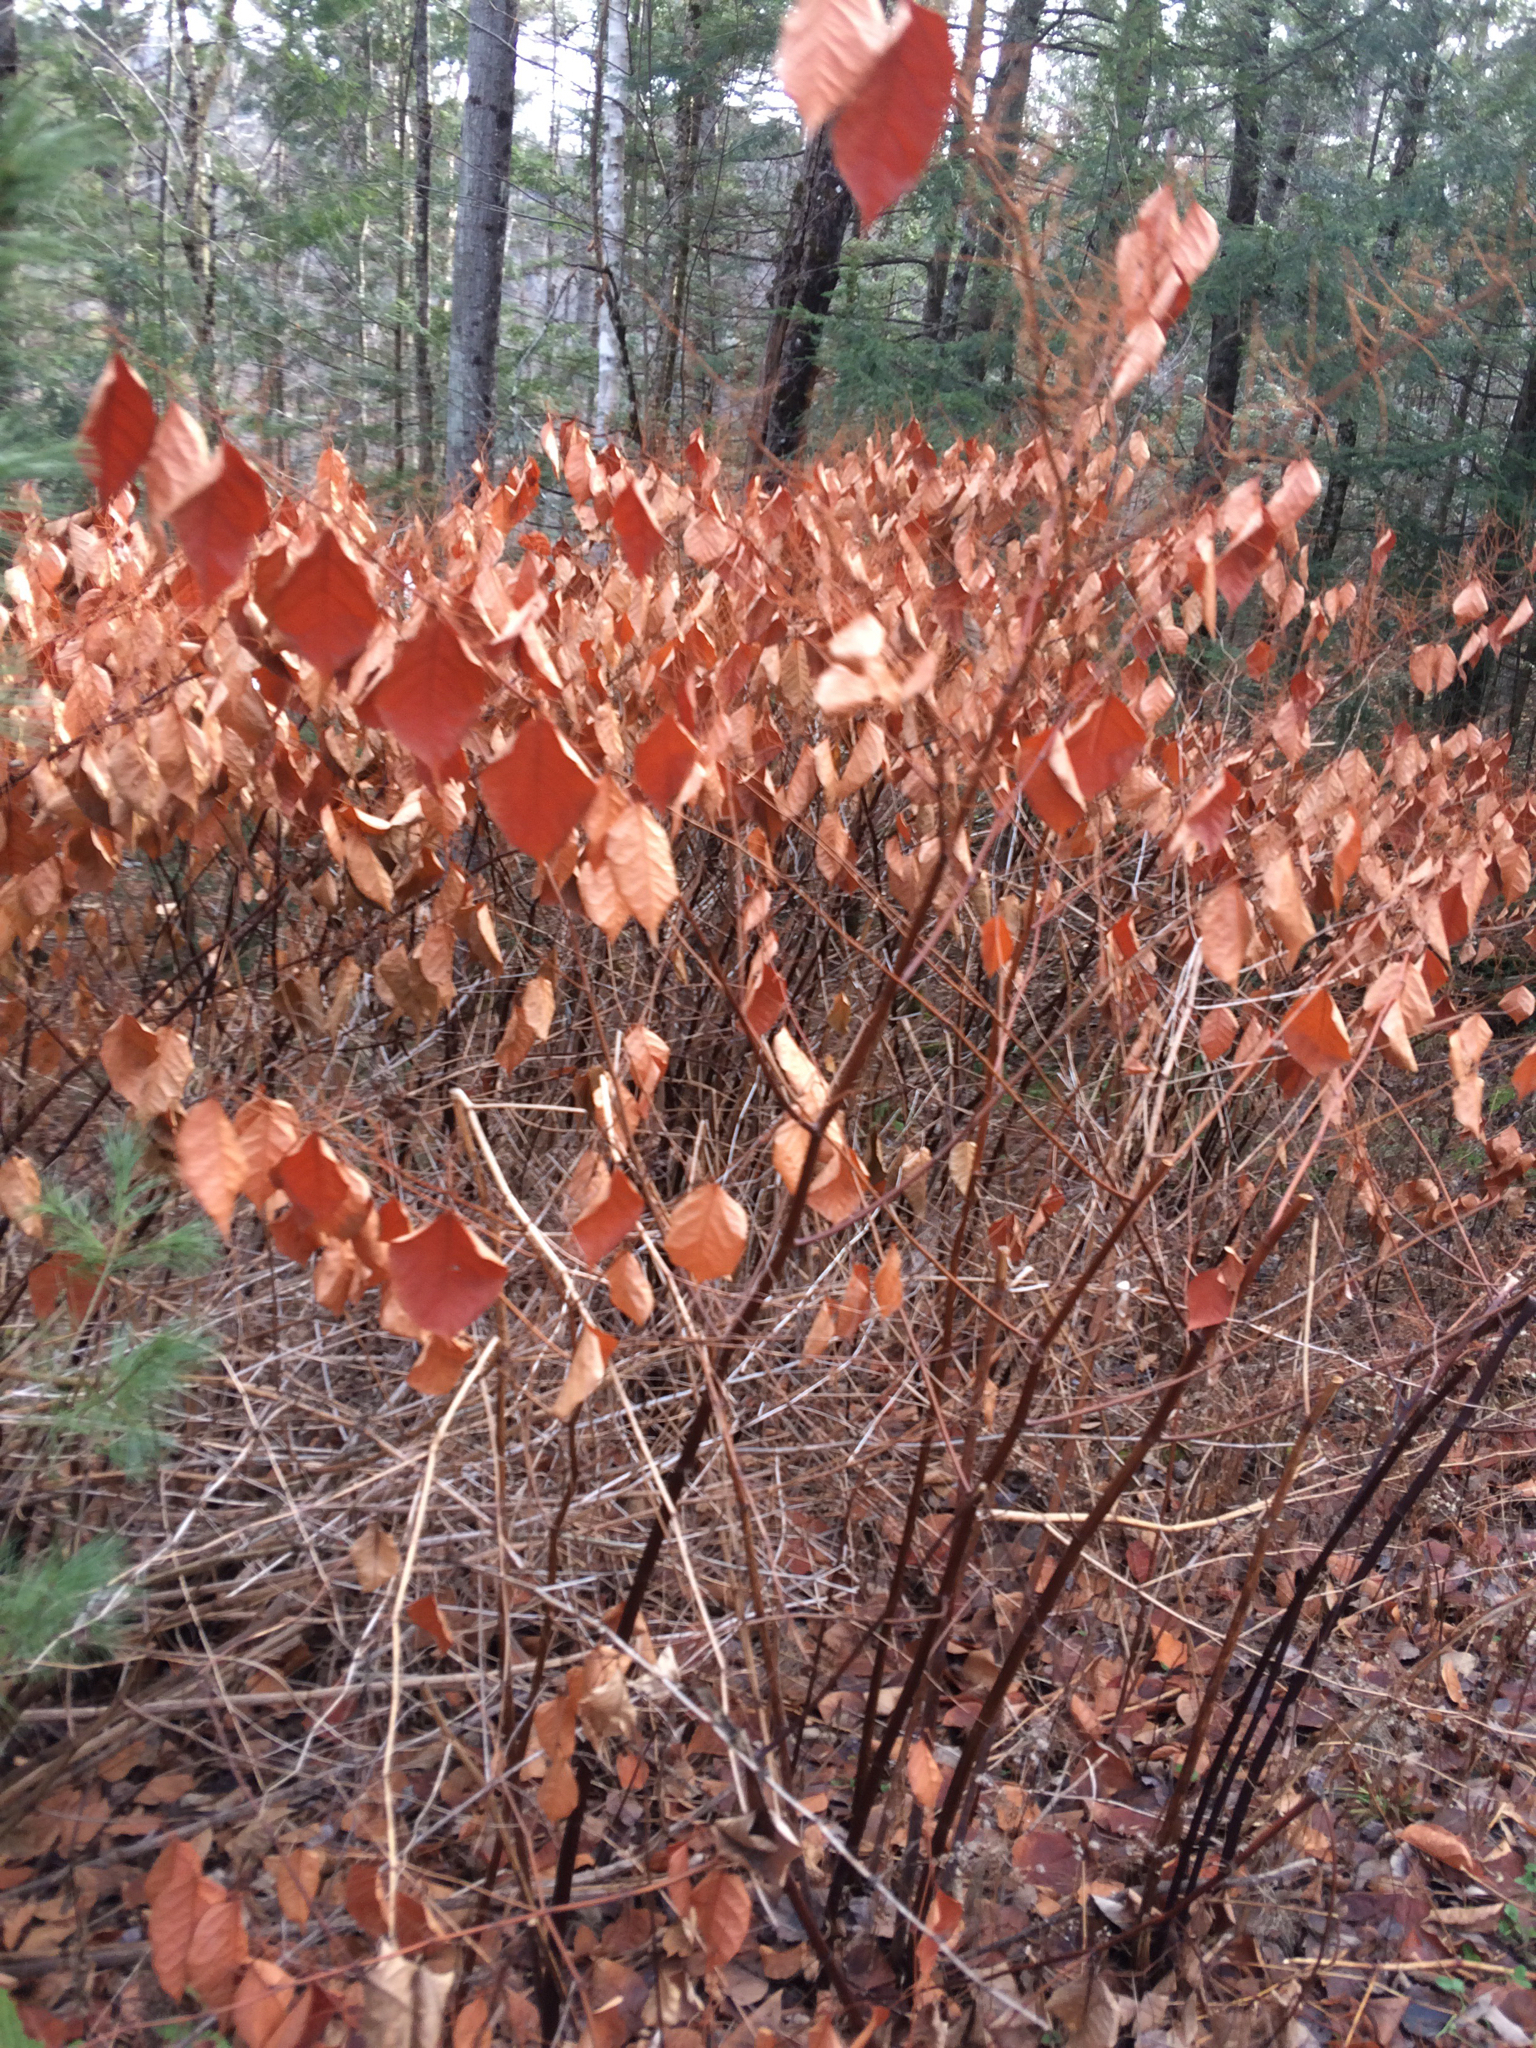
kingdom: Plantae
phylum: Tracheophyta
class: Magnoliopsida
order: Caryophyllales
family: Polygonaceae
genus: Reynoutria
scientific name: Reynoutria japonica
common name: Japanese knotweed
